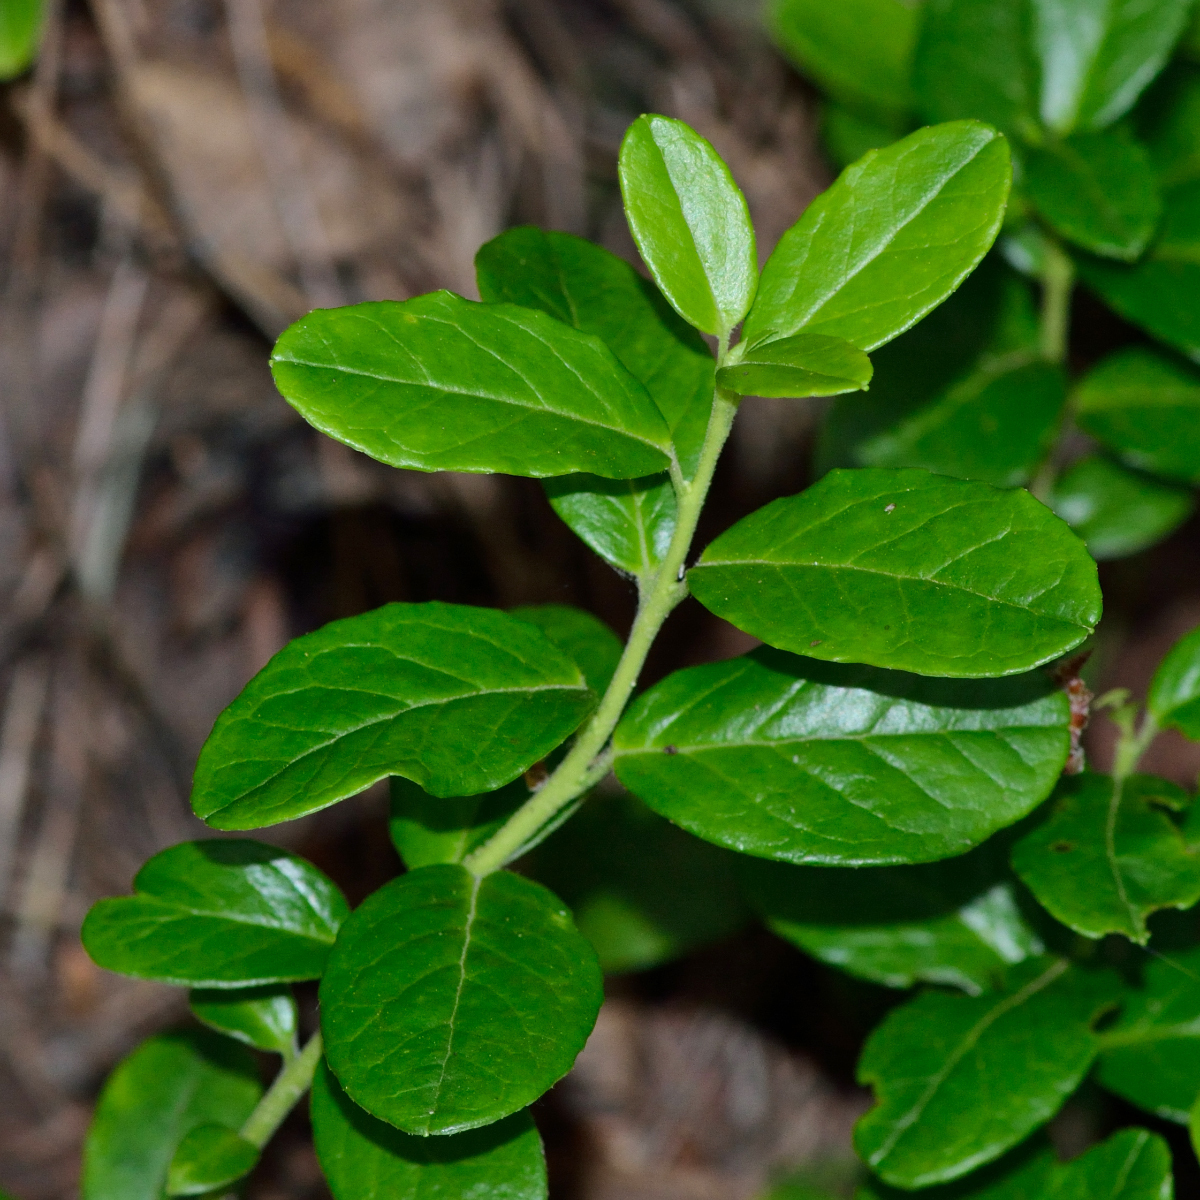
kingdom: Plantae
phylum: Tracheophyta
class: Magnoliopsida
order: Ericales
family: Ericaceae
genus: Vaccinium
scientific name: Vaccinium vitis-idaea
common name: Cowberry
